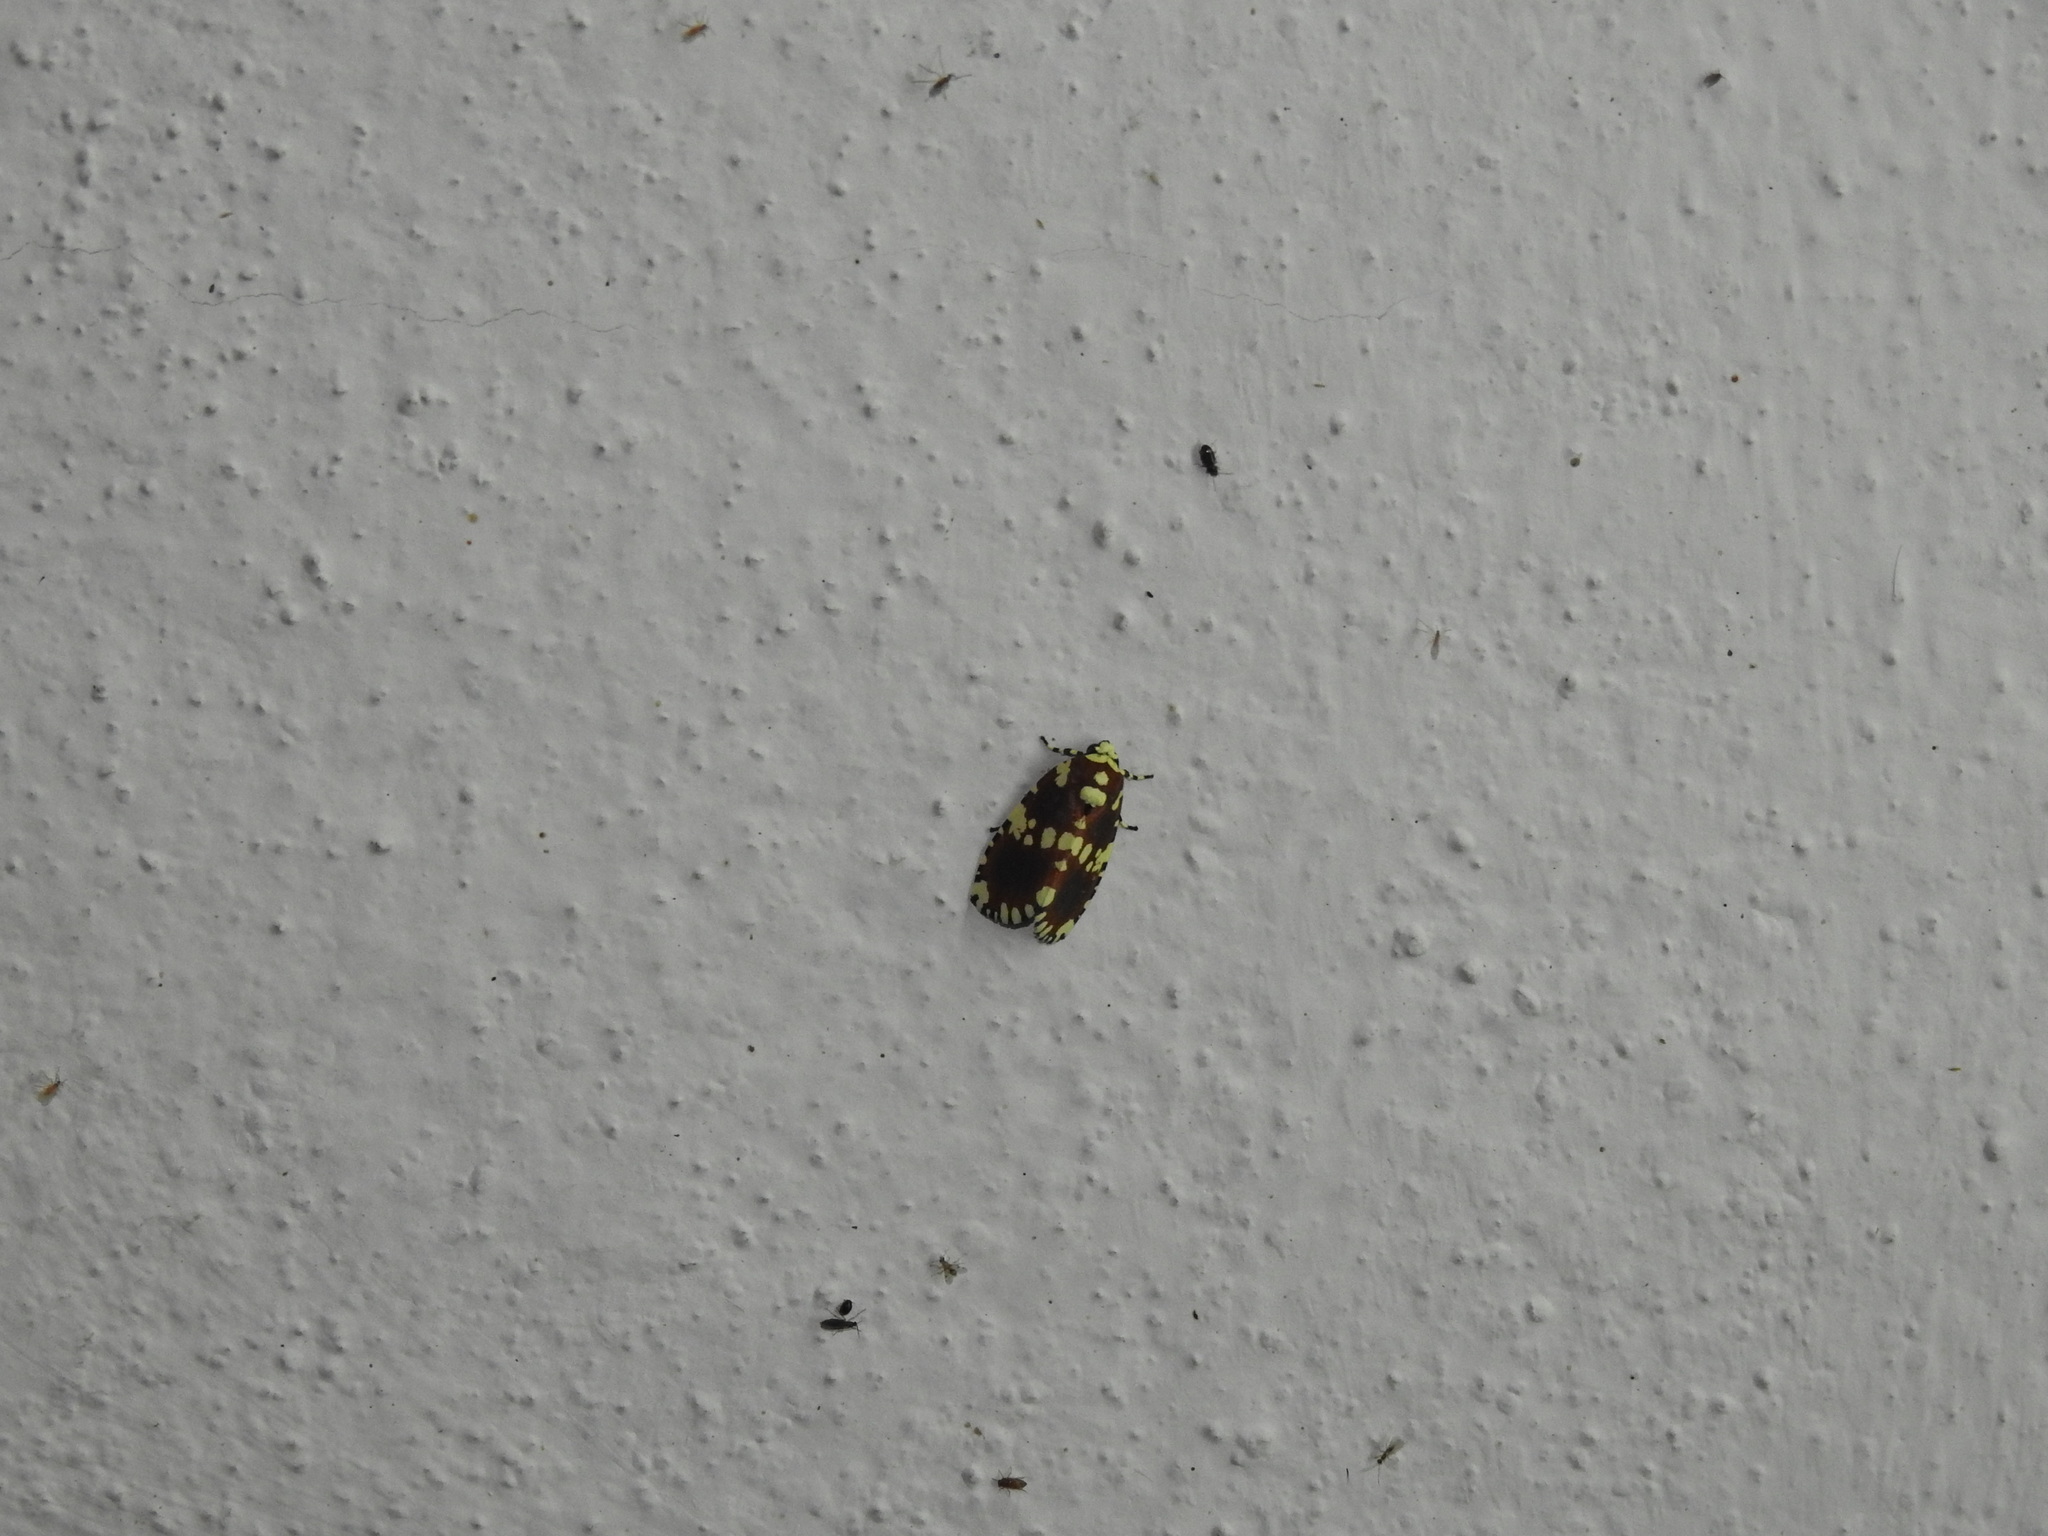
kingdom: Animalia
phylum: Arthropoda
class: Insecta
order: Lepidoptera
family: Noctuidae
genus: Yepcalphis
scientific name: Yepcalphis dilectissima
